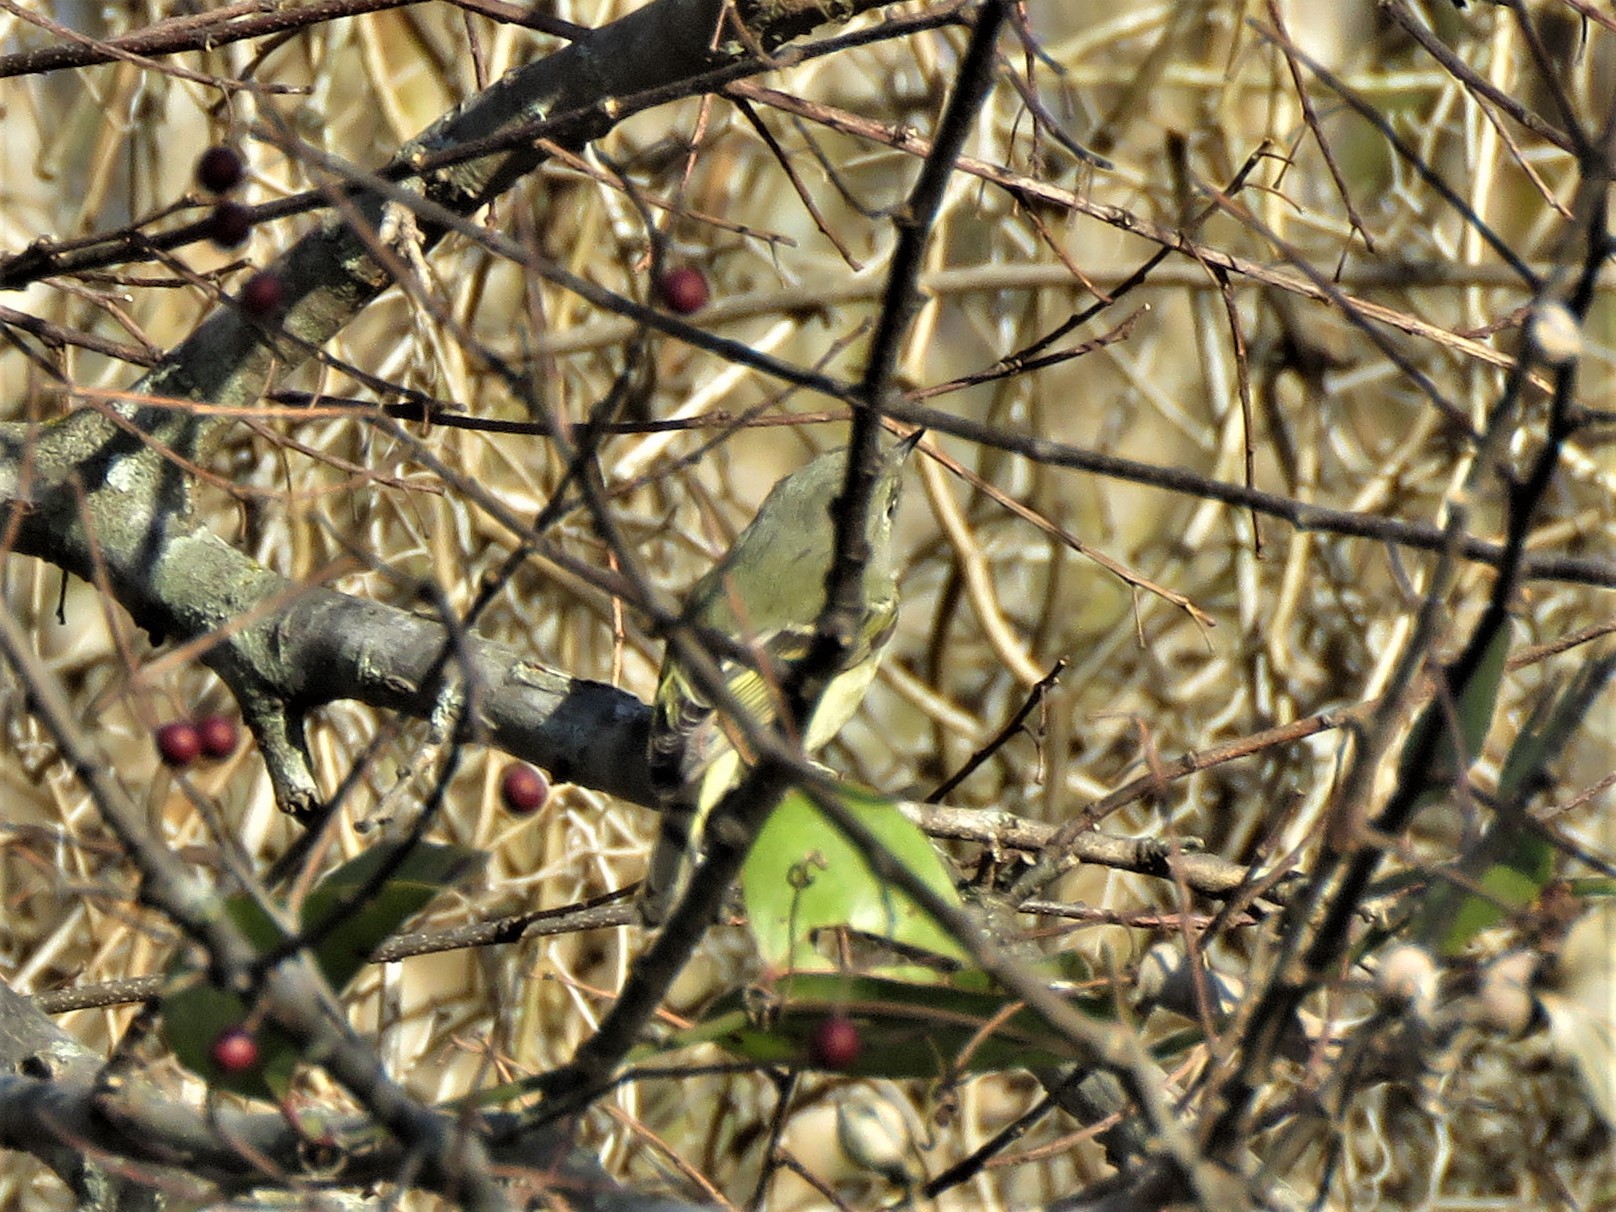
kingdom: Animalia
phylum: Chordata
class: Aves
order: Passeriformes
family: Regulidae
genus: Regulus
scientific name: Regulus calendula
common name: Ruby-crowned kinglet
